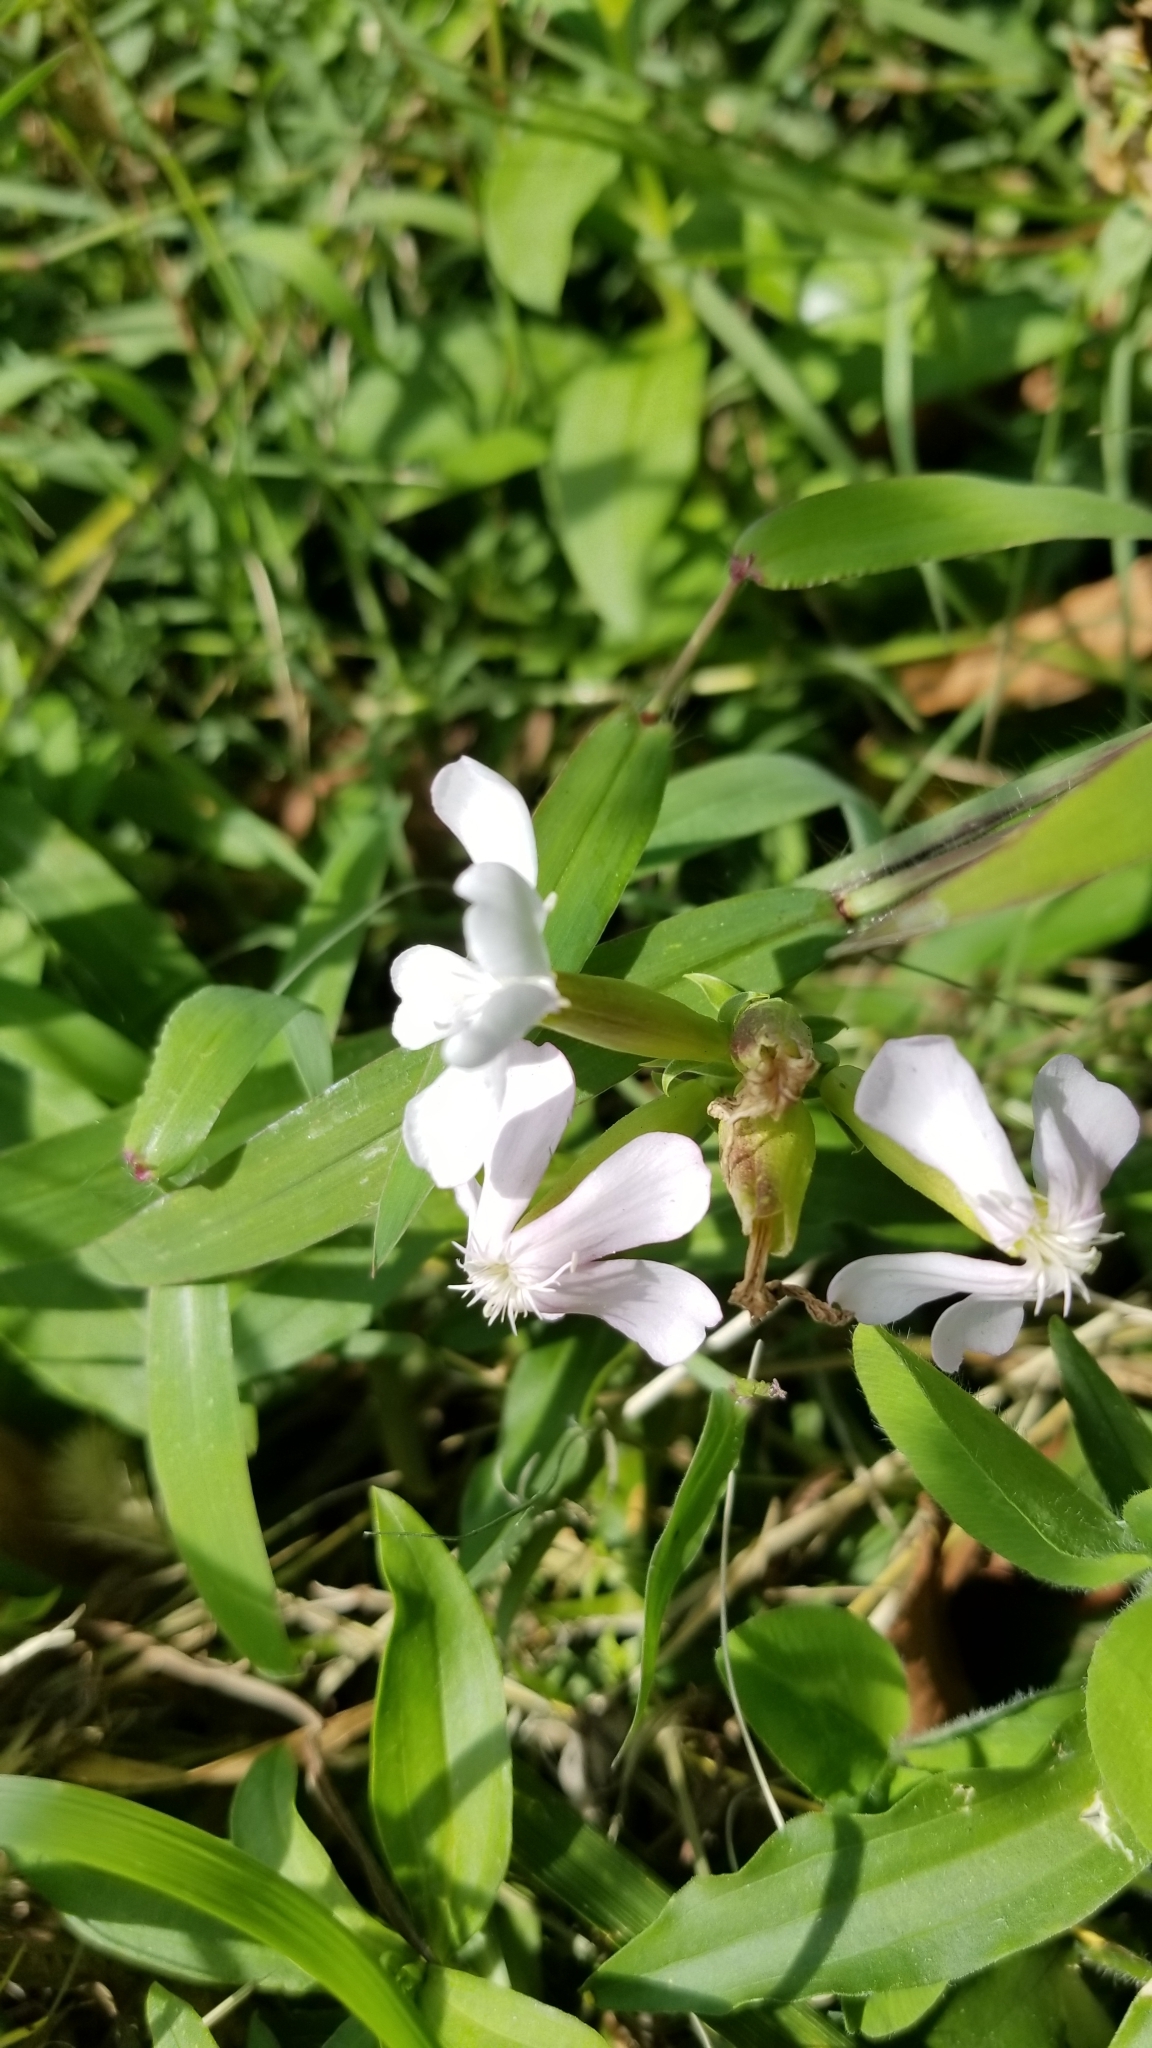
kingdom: Plantae
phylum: Tracheophyta
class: Magnoliopsida
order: Caryophyllales
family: Caryophyllaceae
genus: Saponaria
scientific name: Saponaria officinalis
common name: Soapwort
